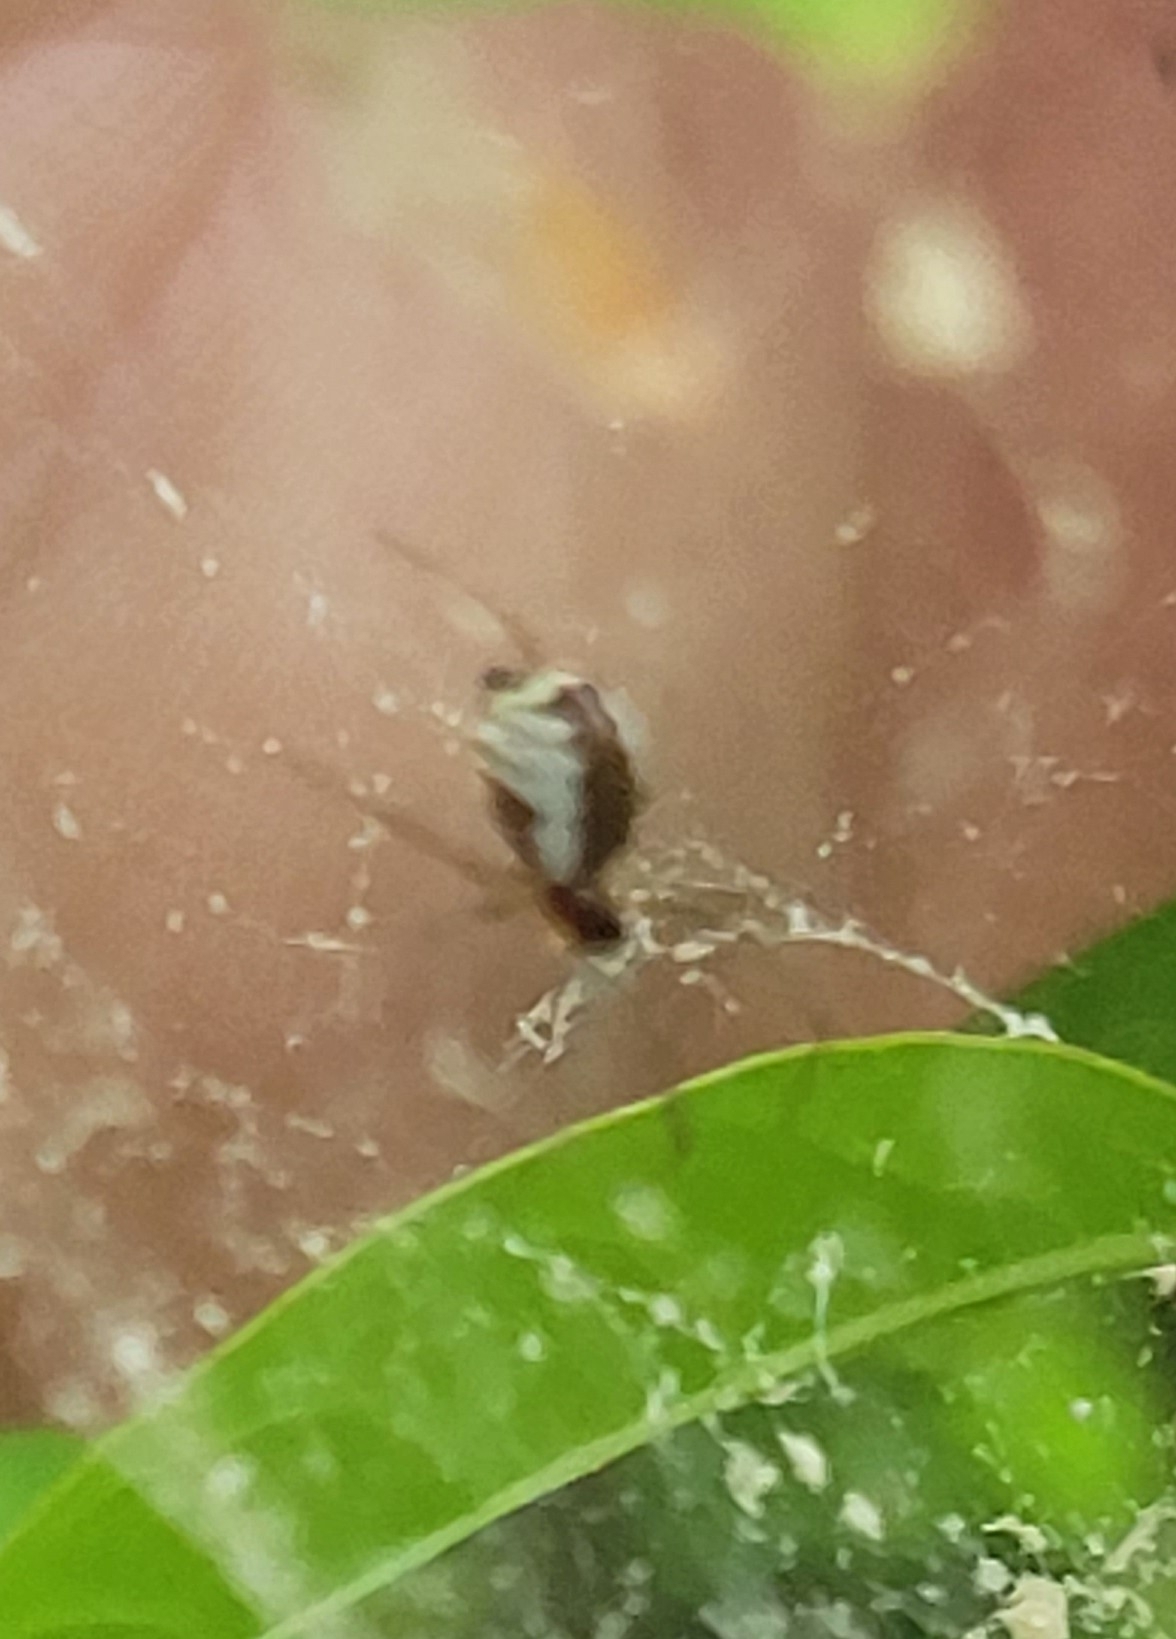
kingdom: Animalia
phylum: Arthropoda
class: Arachnida
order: Araneae
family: Linyphiidae
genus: Frontinella
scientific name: Frontinella pyramitela
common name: Bowl-and-doily spider
